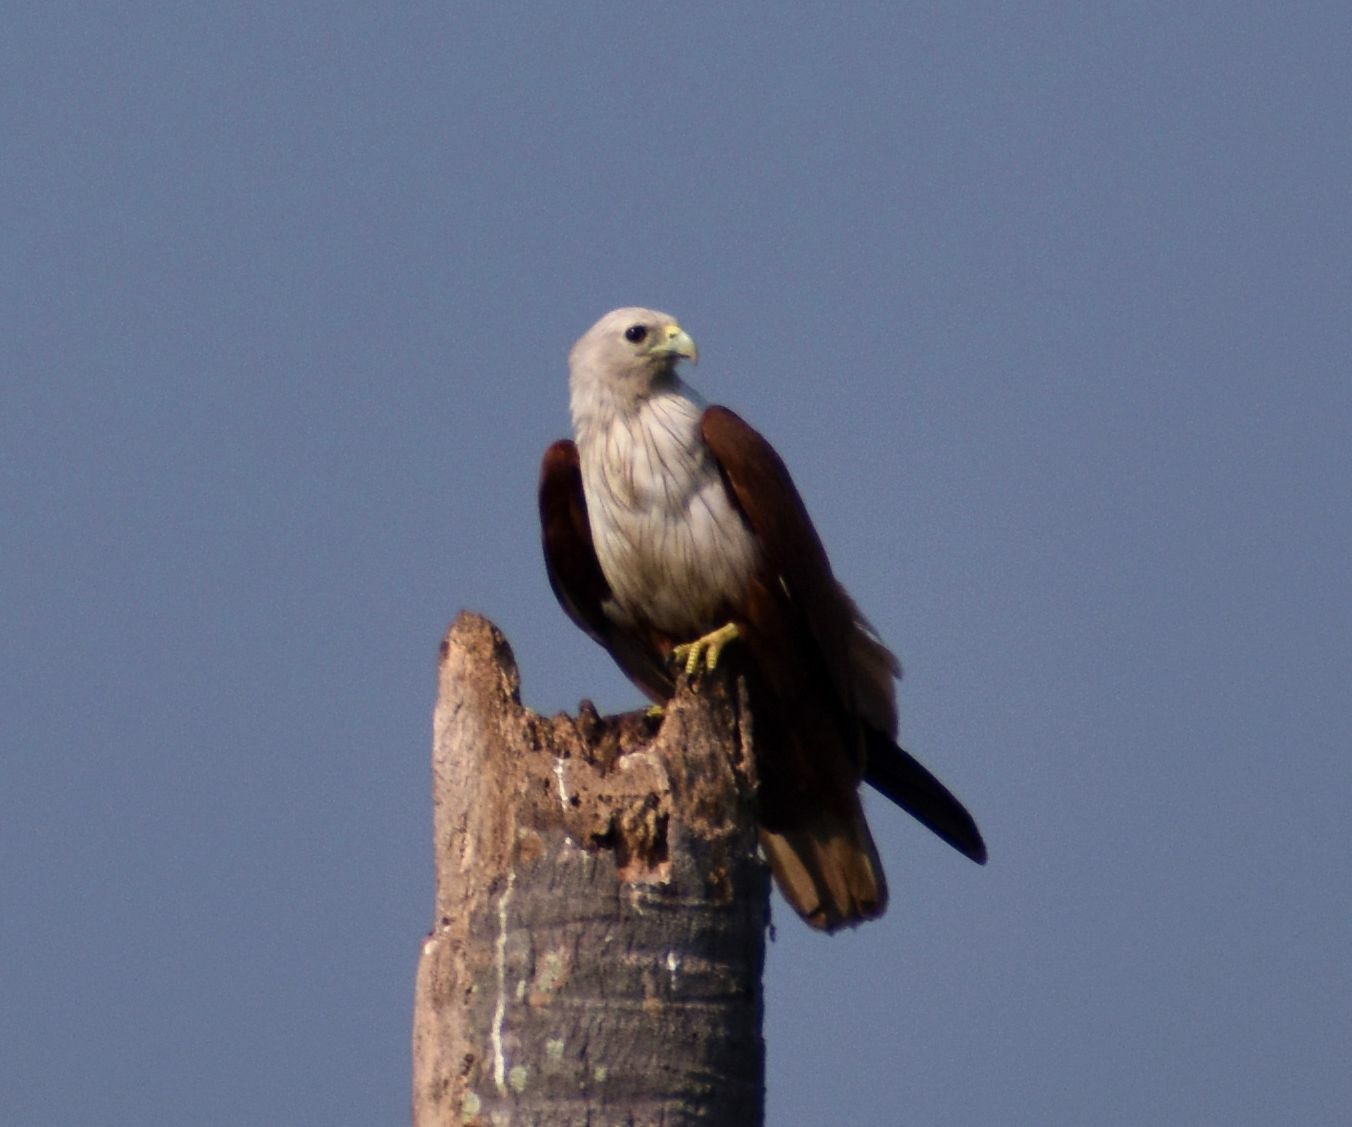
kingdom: Animalia
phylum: Chordata
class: Aves
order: Accipitriformes
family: Accipitridae
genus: Haliastur
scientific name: Haliastur indus
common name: Brahminy kite
